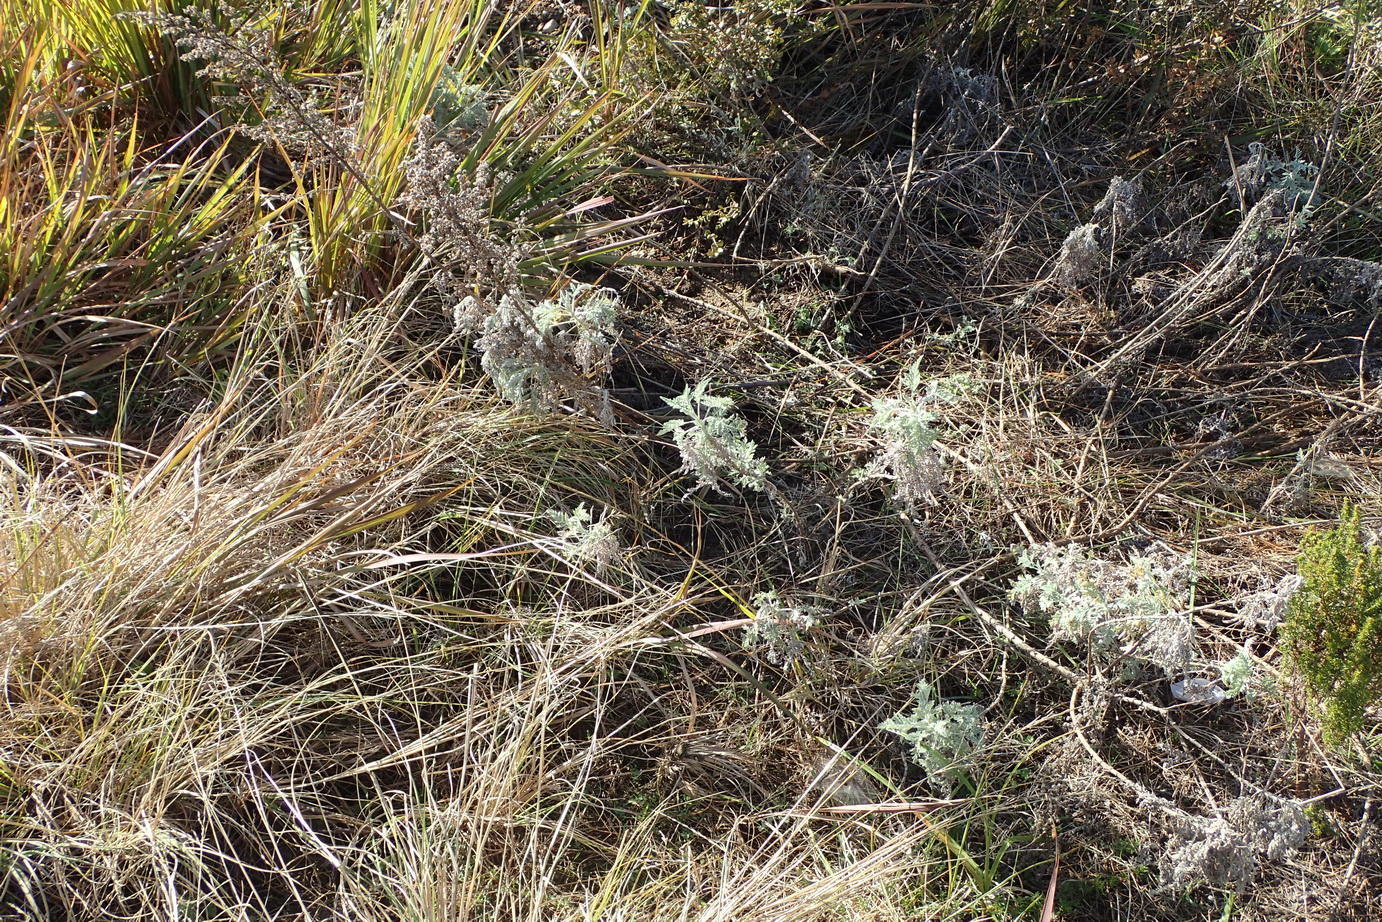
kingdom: Plantae
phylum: Tracheophyta
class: Magnoliopsida
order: Asterales
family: Asteraceae
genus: Artemisia
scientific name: Artemisia afra
